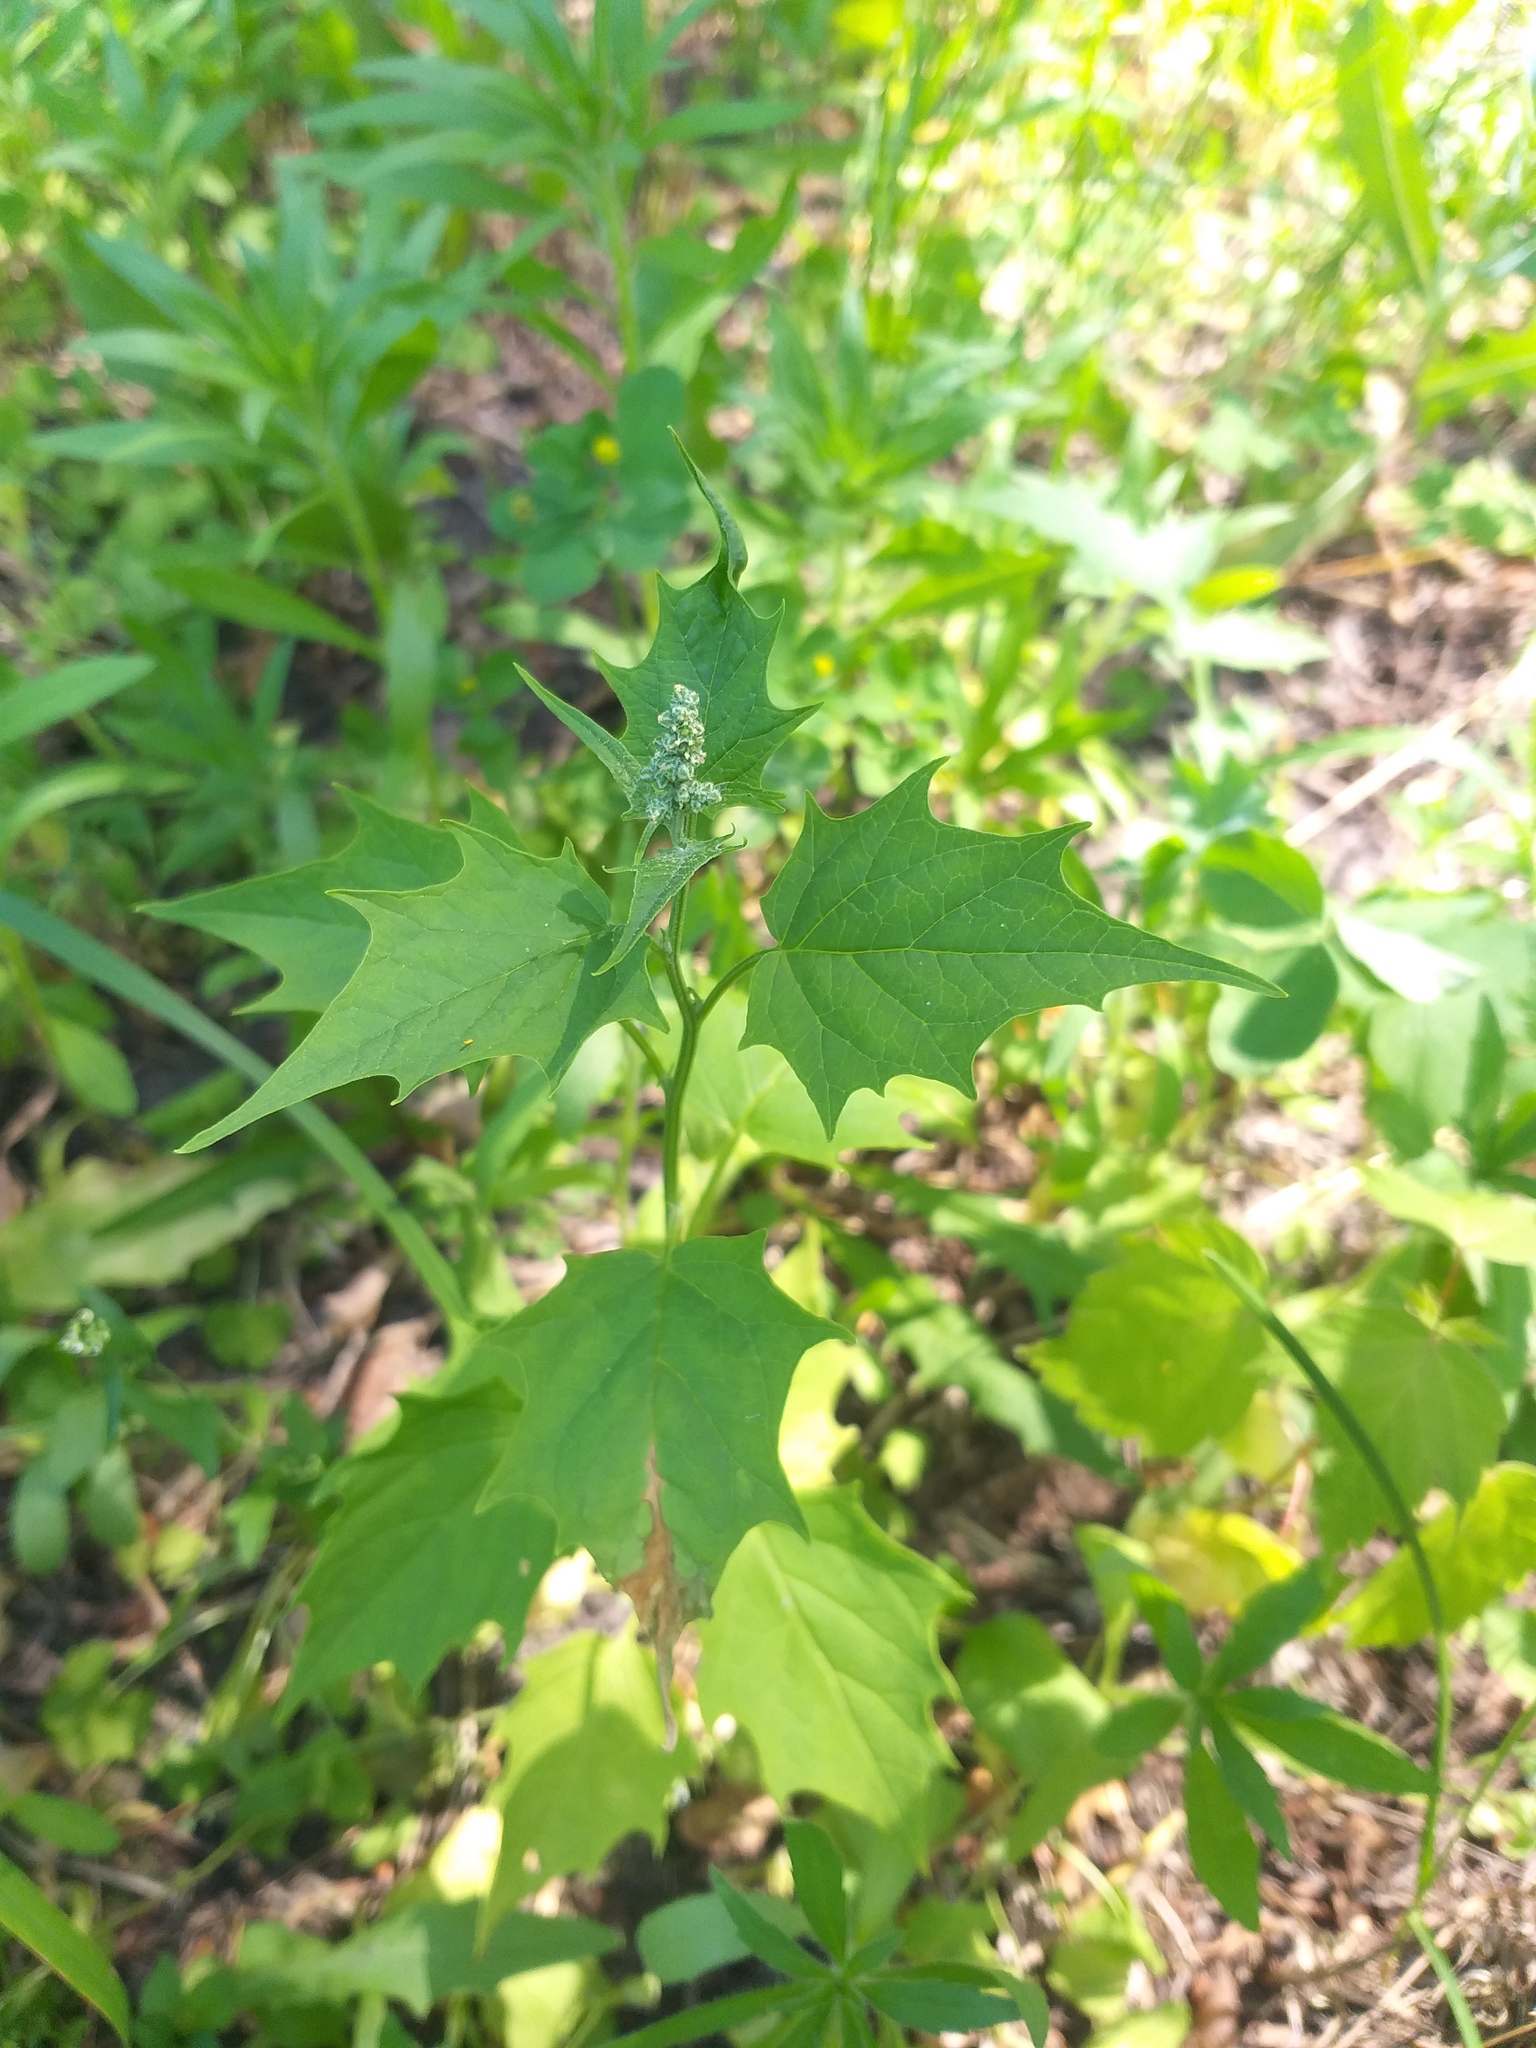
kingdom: Plantae
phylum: Tracheophyta
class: Magnoliopsida
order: Caryophyllales
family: Amaranthaceae
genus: Chenopodiastrum
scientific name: Chenopodiastrum hybridum
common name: Mapleleaf goosefoot
